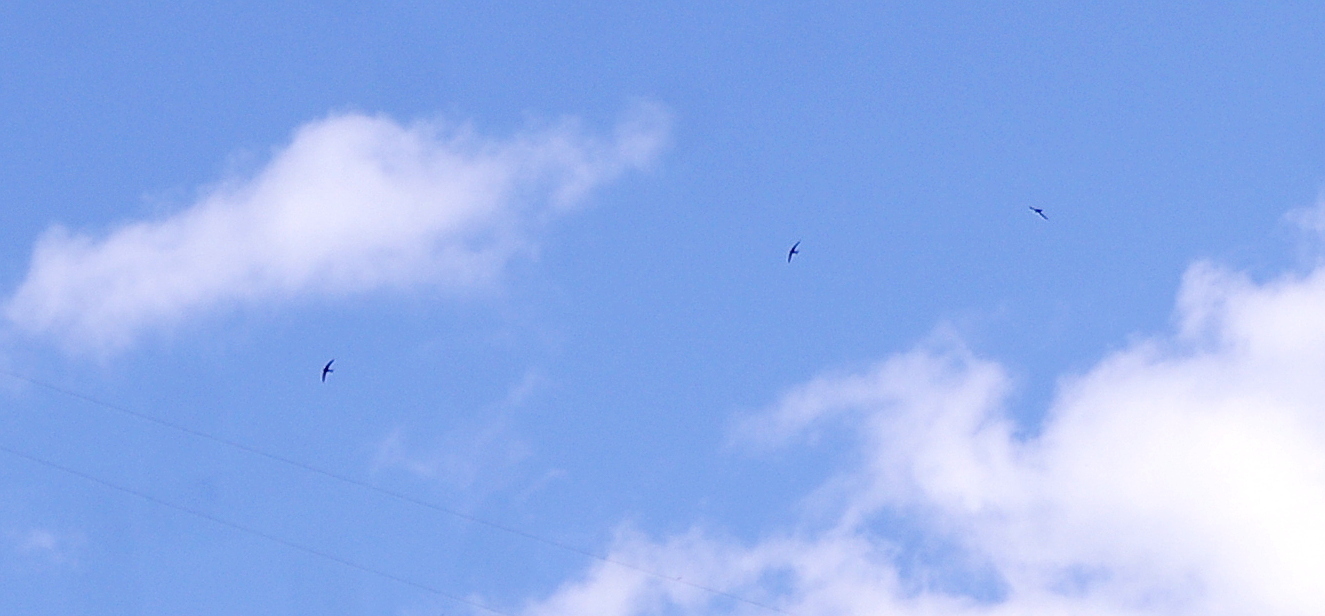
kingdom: Animalia
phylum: Chordata
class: Aves
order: Apodiformes
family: Apodidae
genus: Apus
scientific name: Apus apus
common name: Common swift
